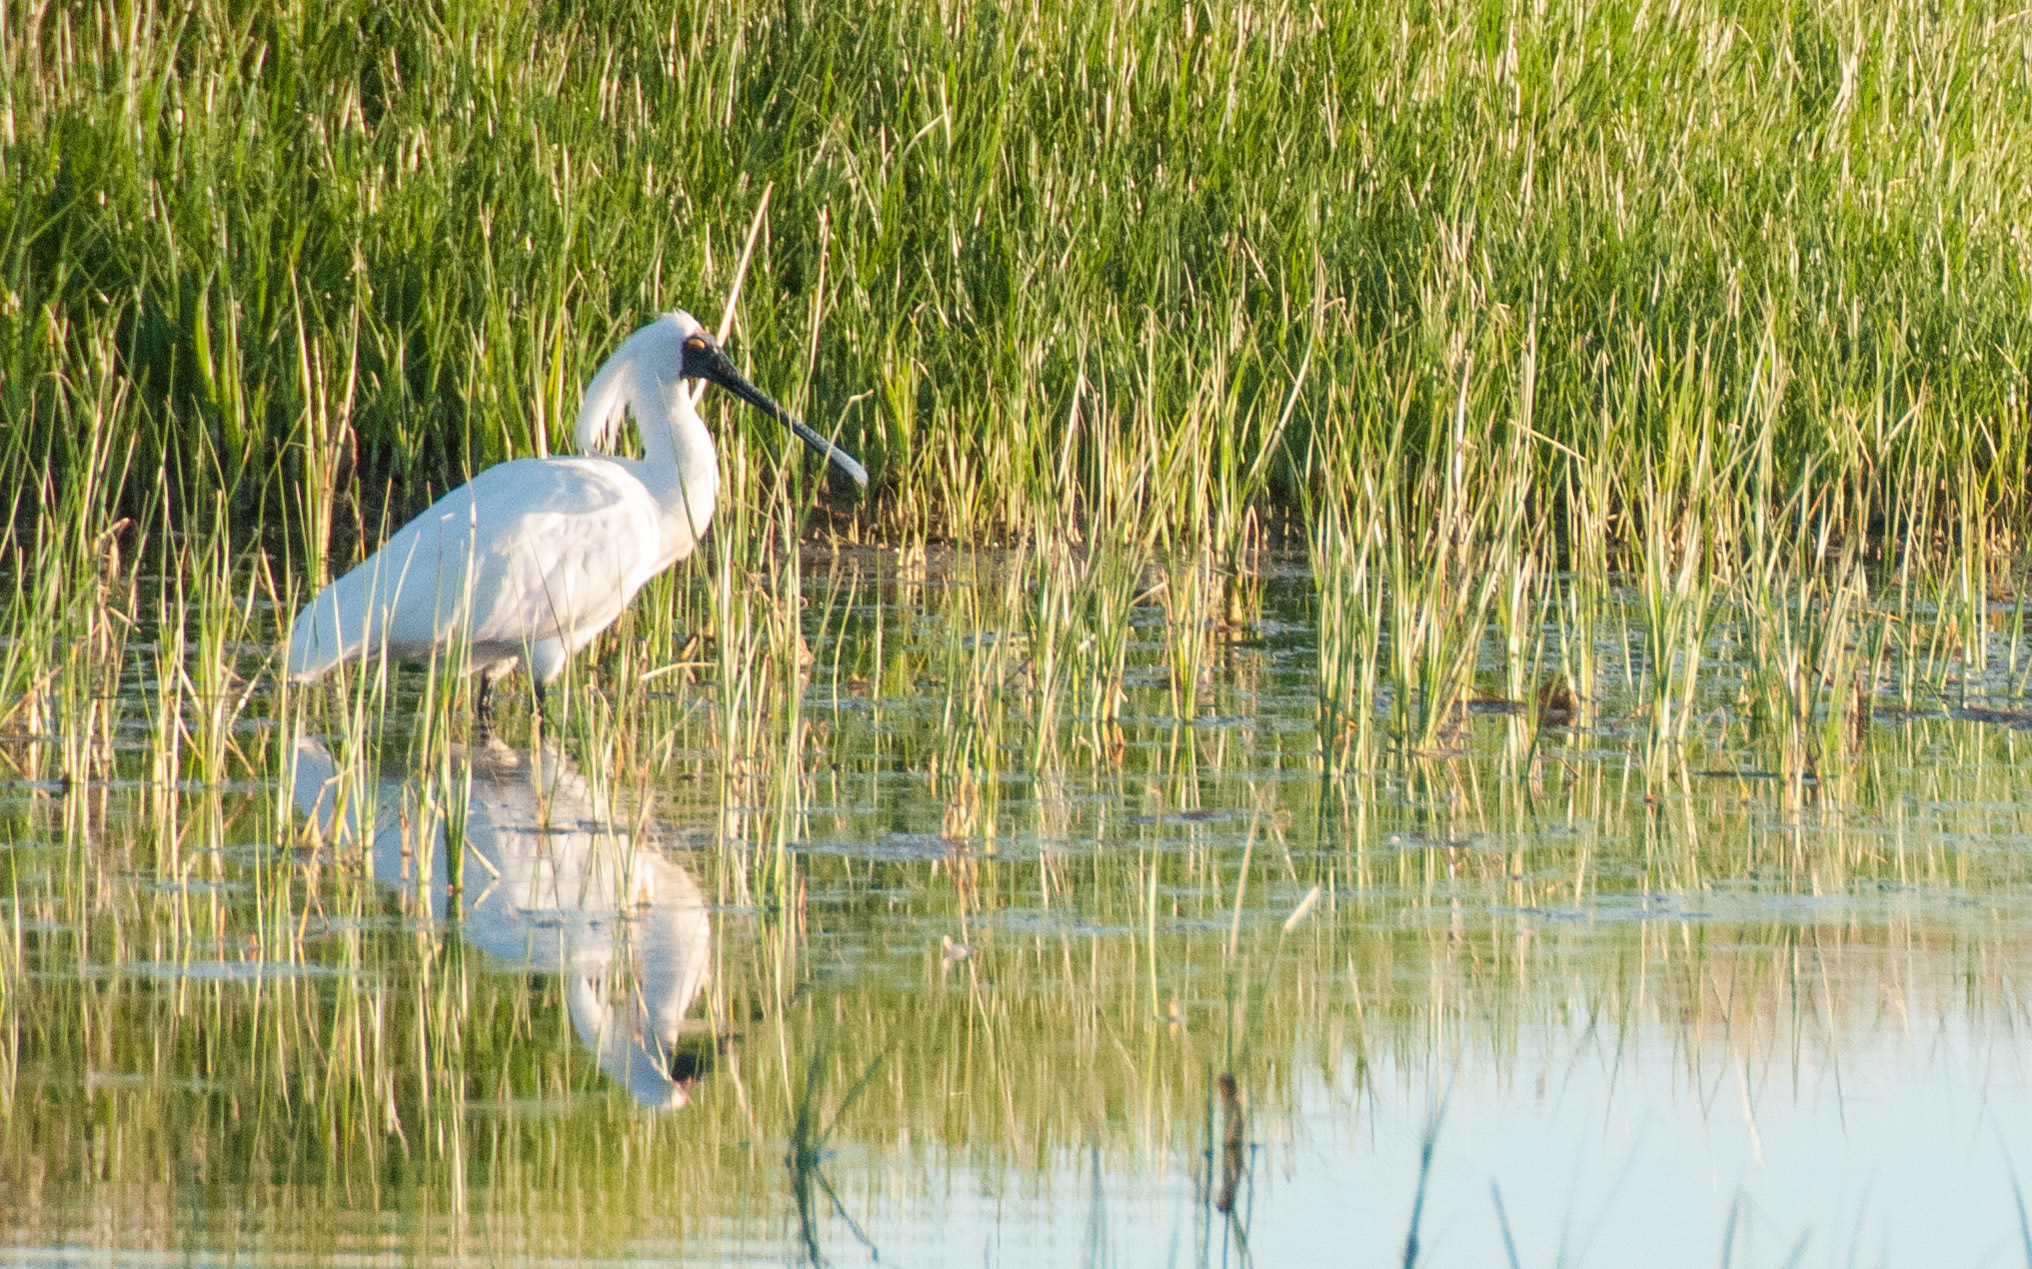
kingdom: Animalia
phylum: Chordata
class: Aves
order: Pelecaniformes
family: Threskiornithidae
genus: Platalea
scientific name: Platalea regia
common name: Royal spoonbill
